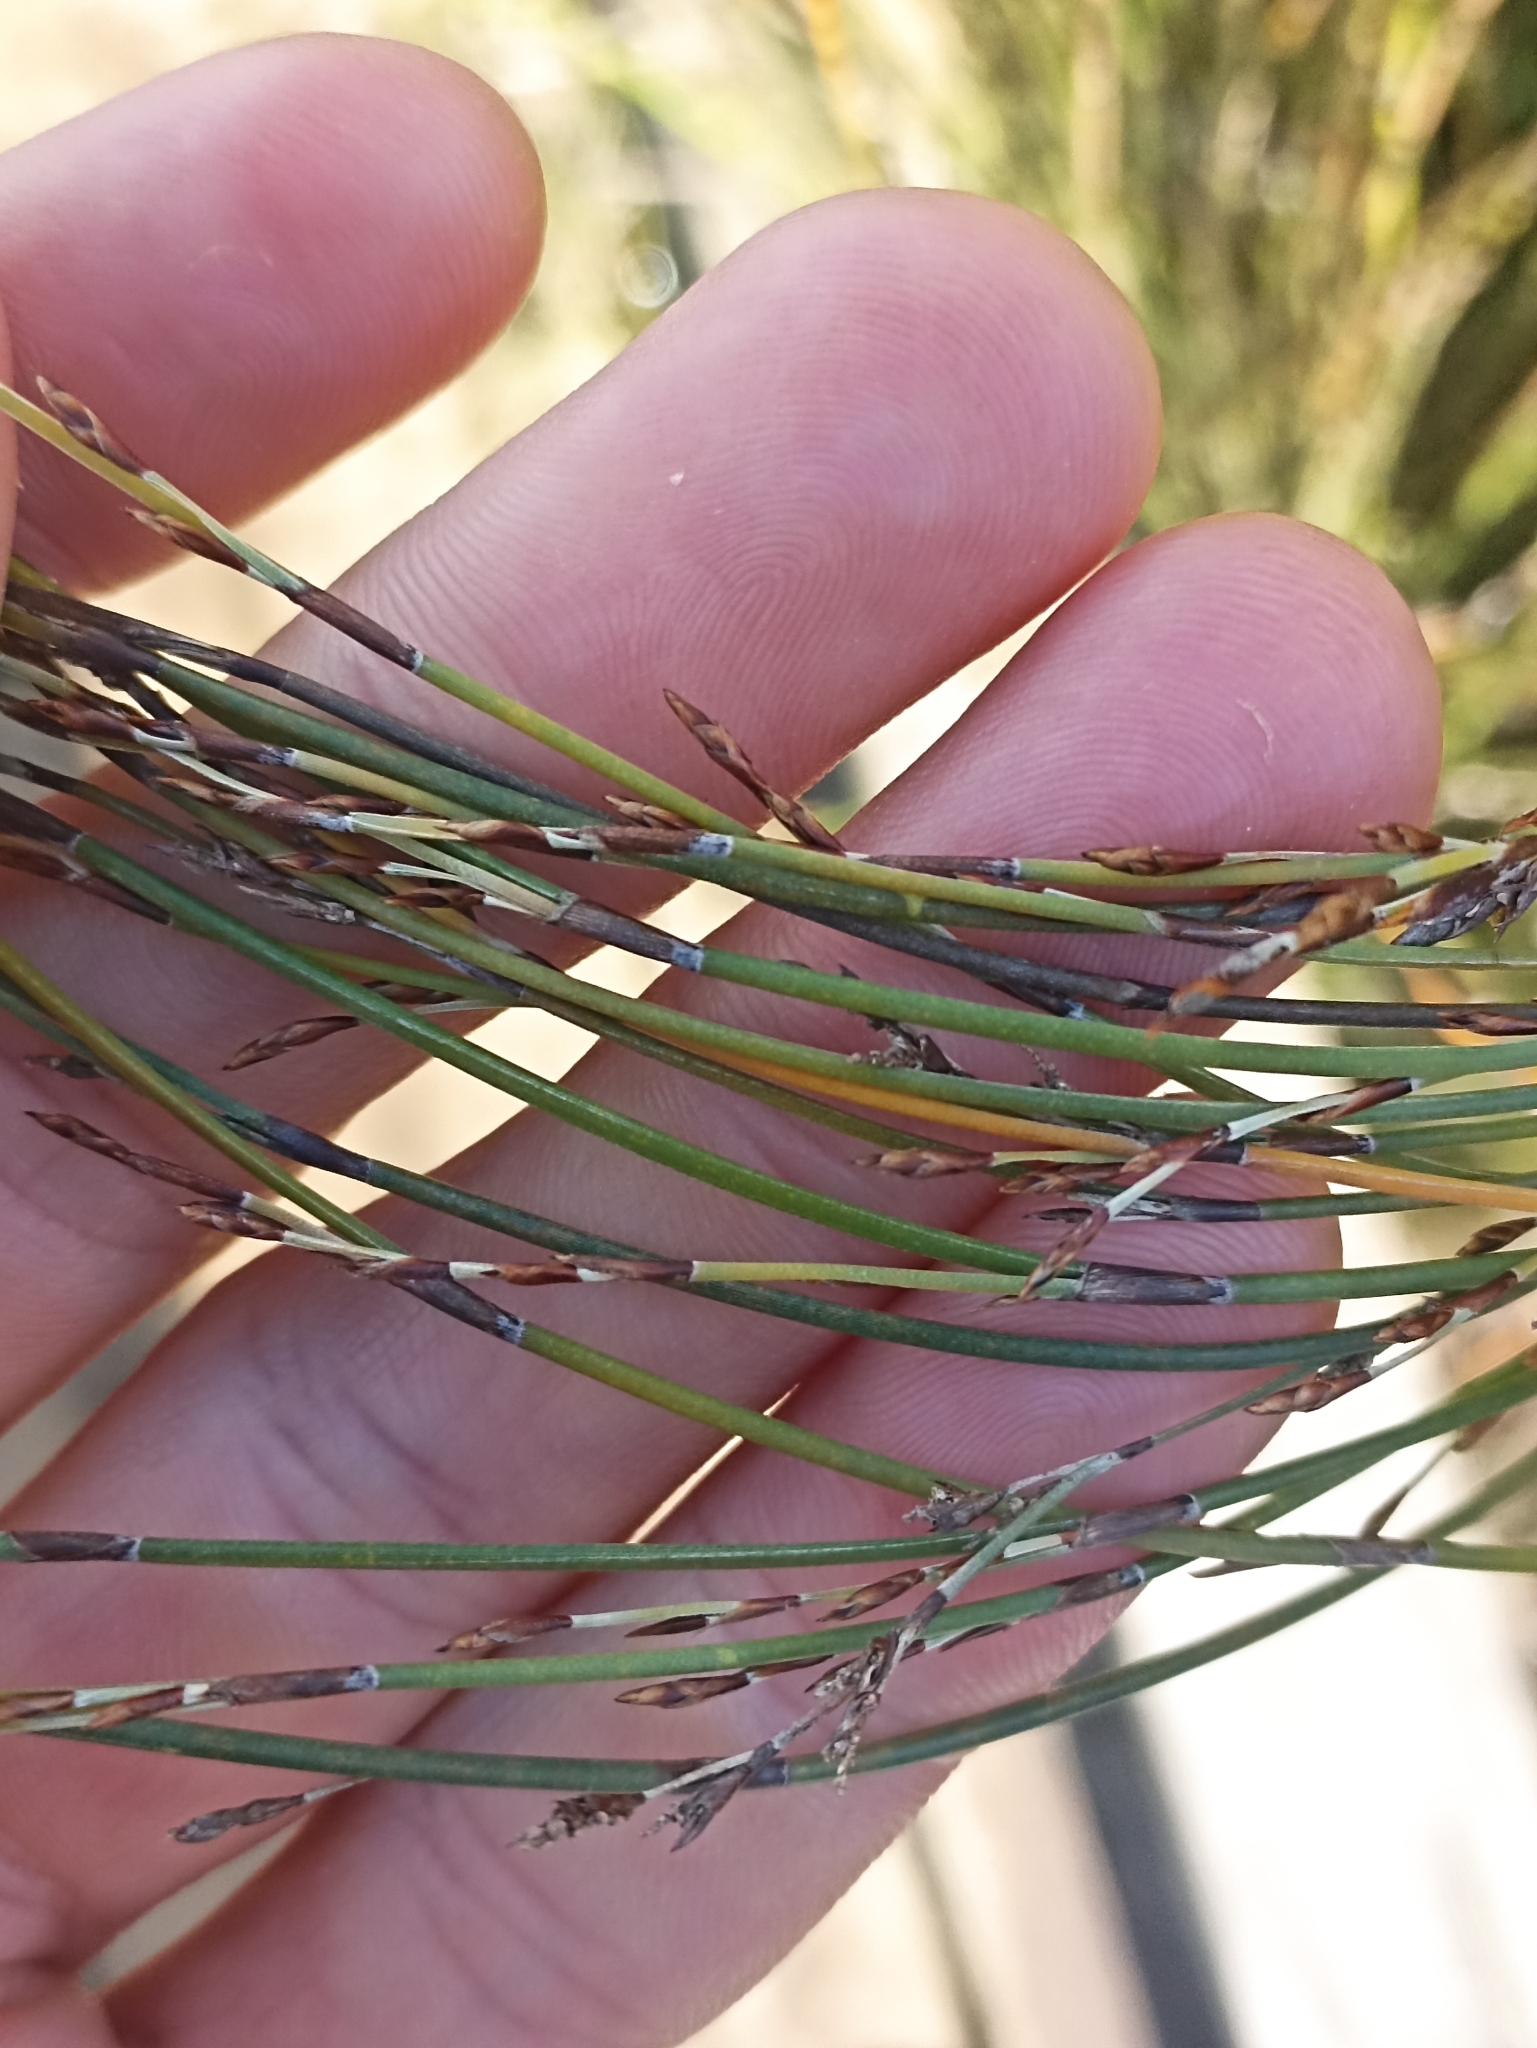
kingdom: Plantae
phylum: Tracheophyta
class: Liliopsida
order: Poales
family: Restionaceae
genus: Apodasmia
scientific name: Apodasmia similis
